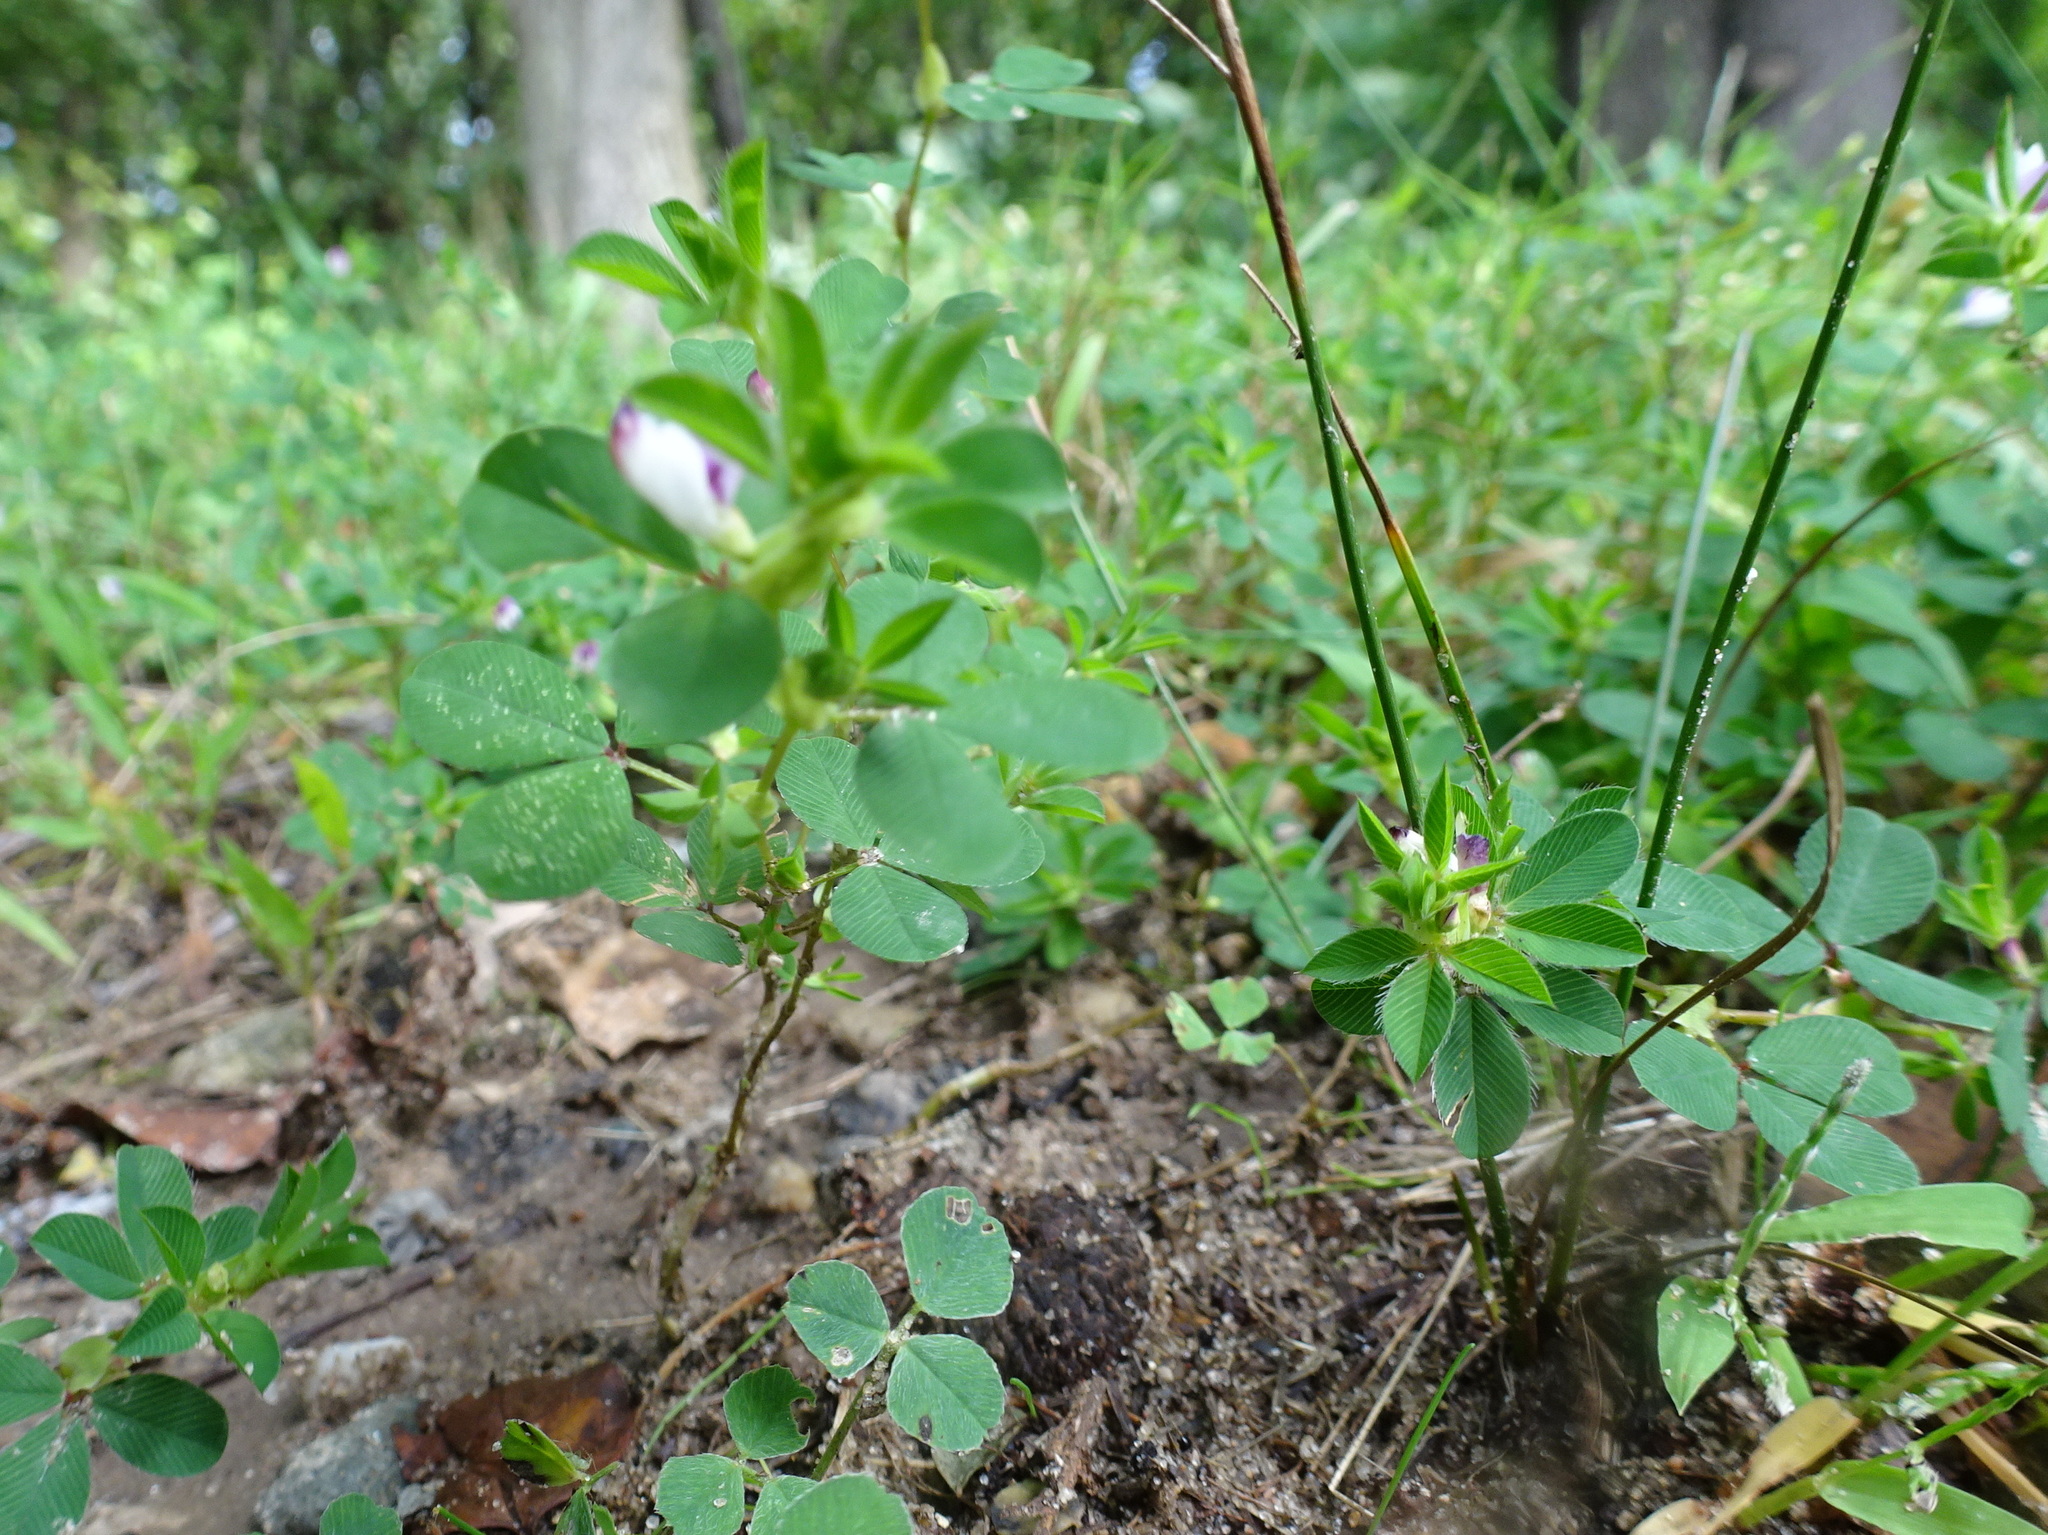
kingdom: Plantae
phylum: Tracheophyta
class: Magnoliopsida
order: Fabales
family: Fabaceae
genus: Kummerowia
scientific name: Kummerowia stipulacea
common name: Korean clover
